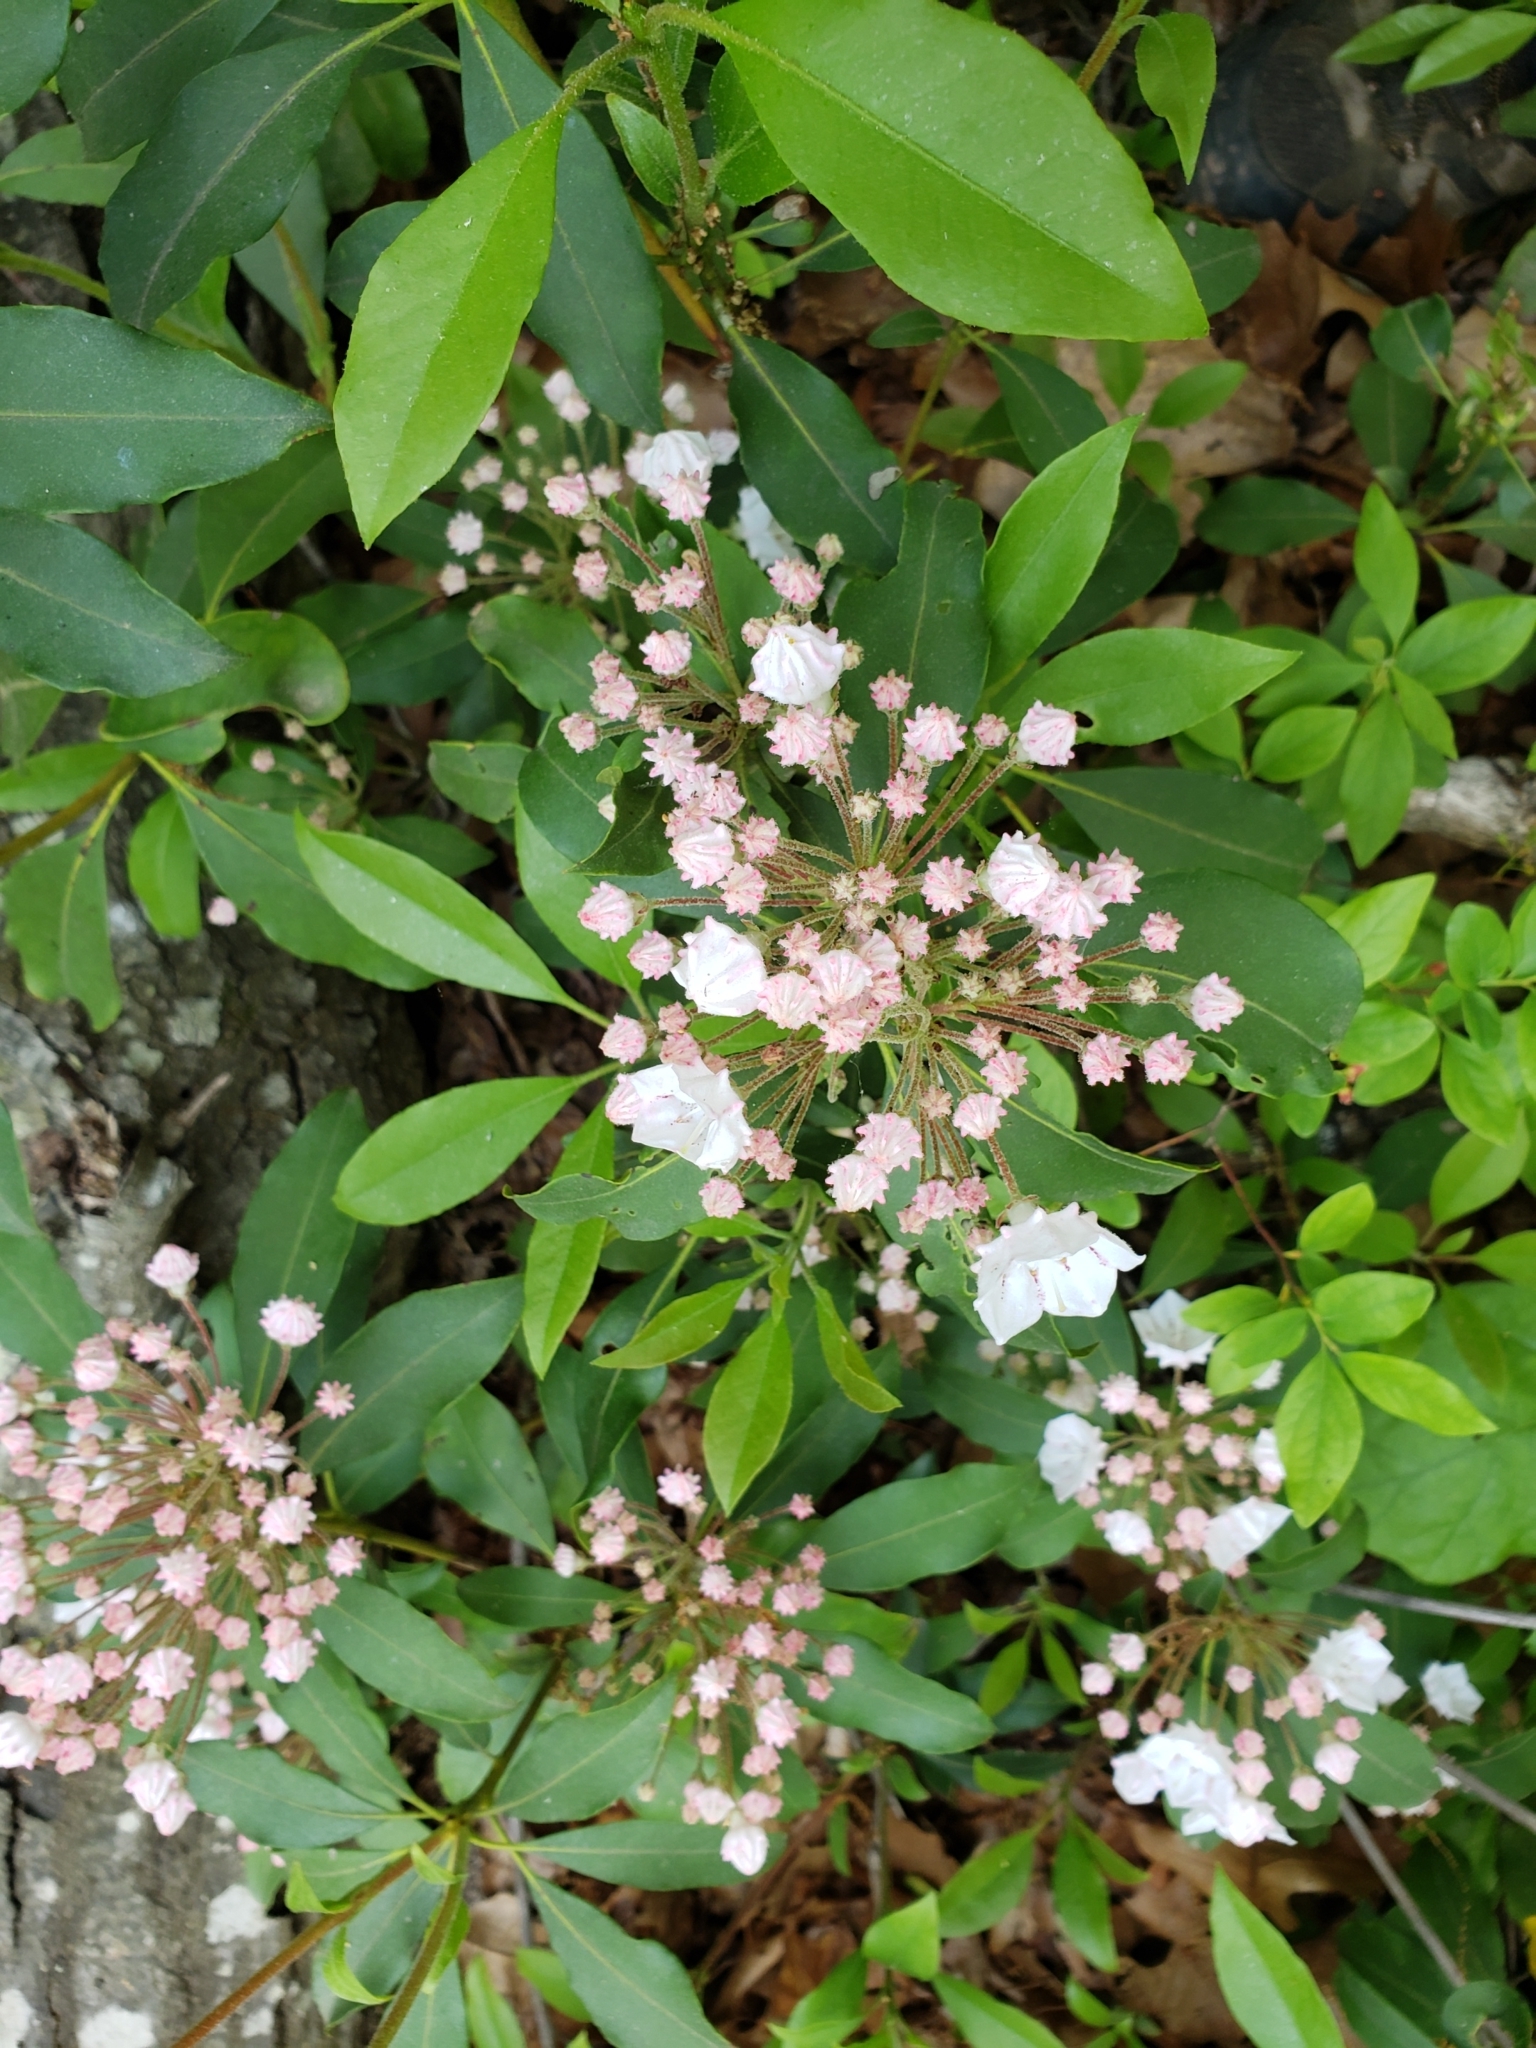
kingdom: Plantae
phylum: Tracheophyta
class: Magnoliopsida
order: Ericales
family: Ericaceae
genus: Kalmia
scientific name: Kalmia latifolia
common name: Mountain-laurel
